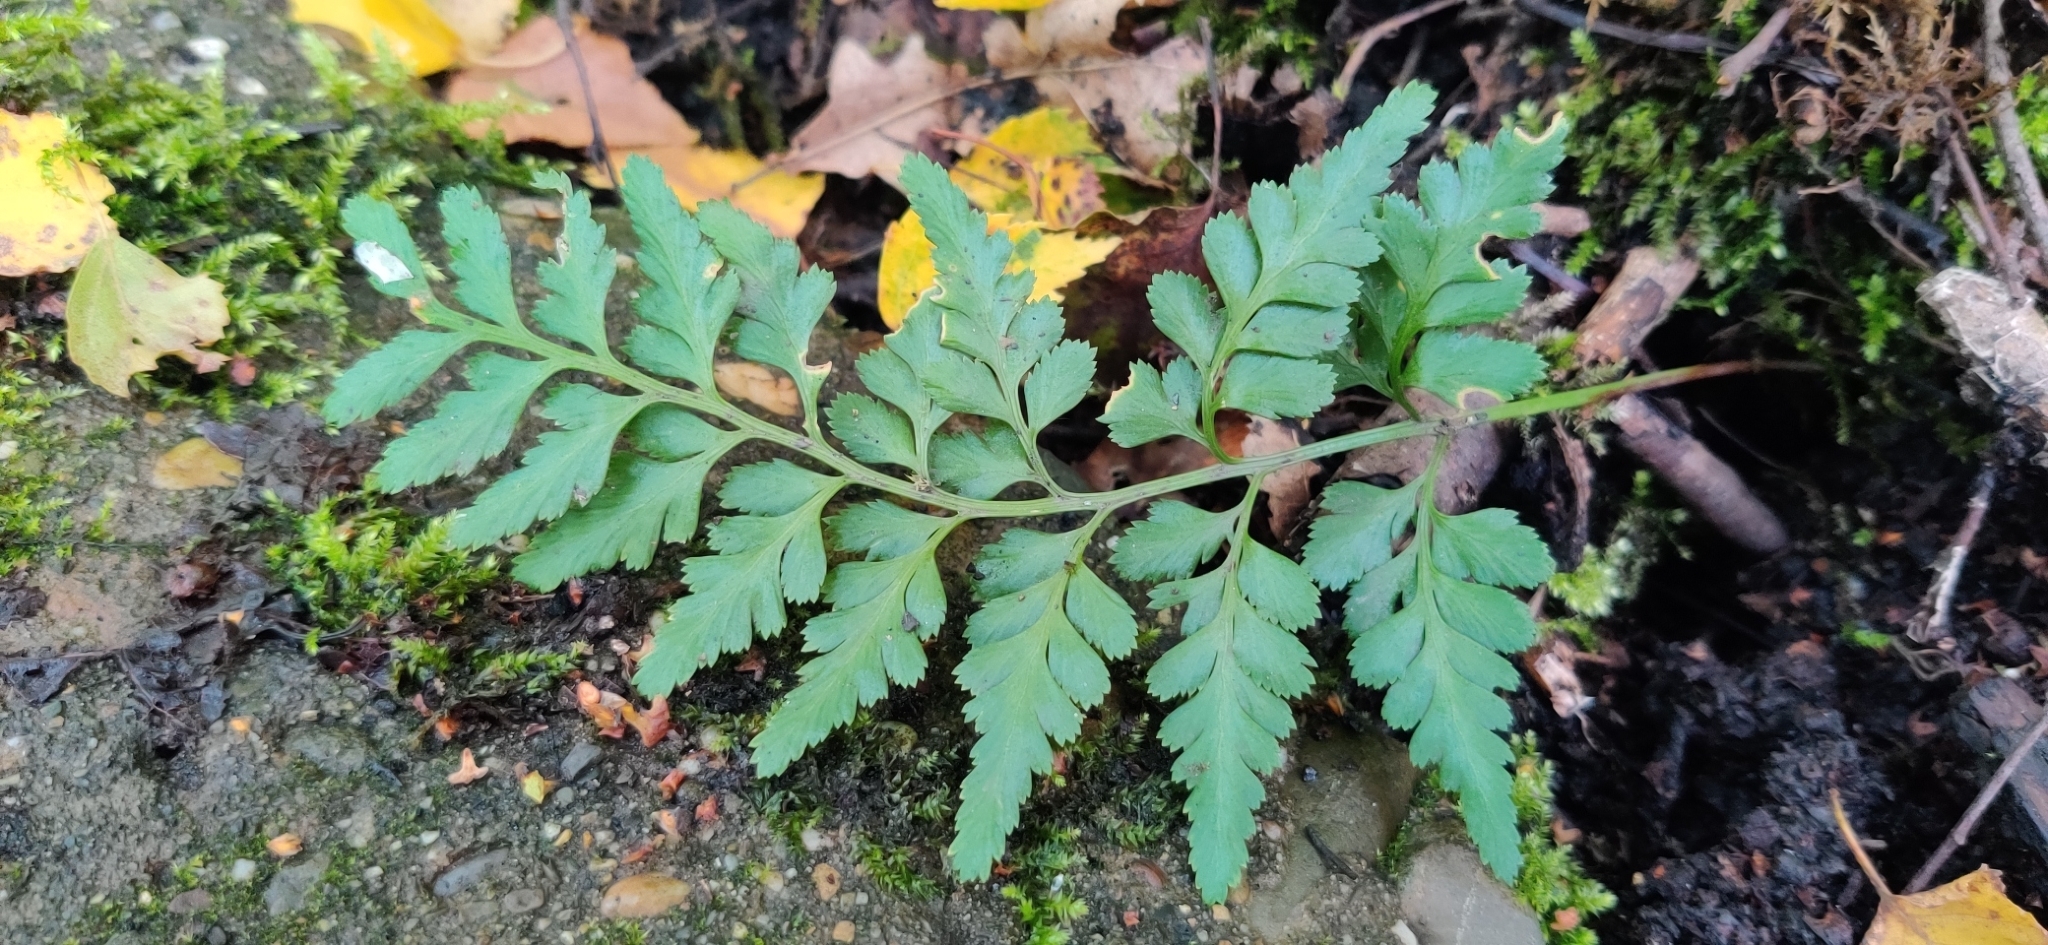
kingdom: Plantae
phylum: Tracheophyta
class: Polypodiopsida
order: Polypodiales
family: Aspleniaceae
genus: Asplenium
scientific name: Asplenium adiantum-nigrum
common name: Black spleenwort
